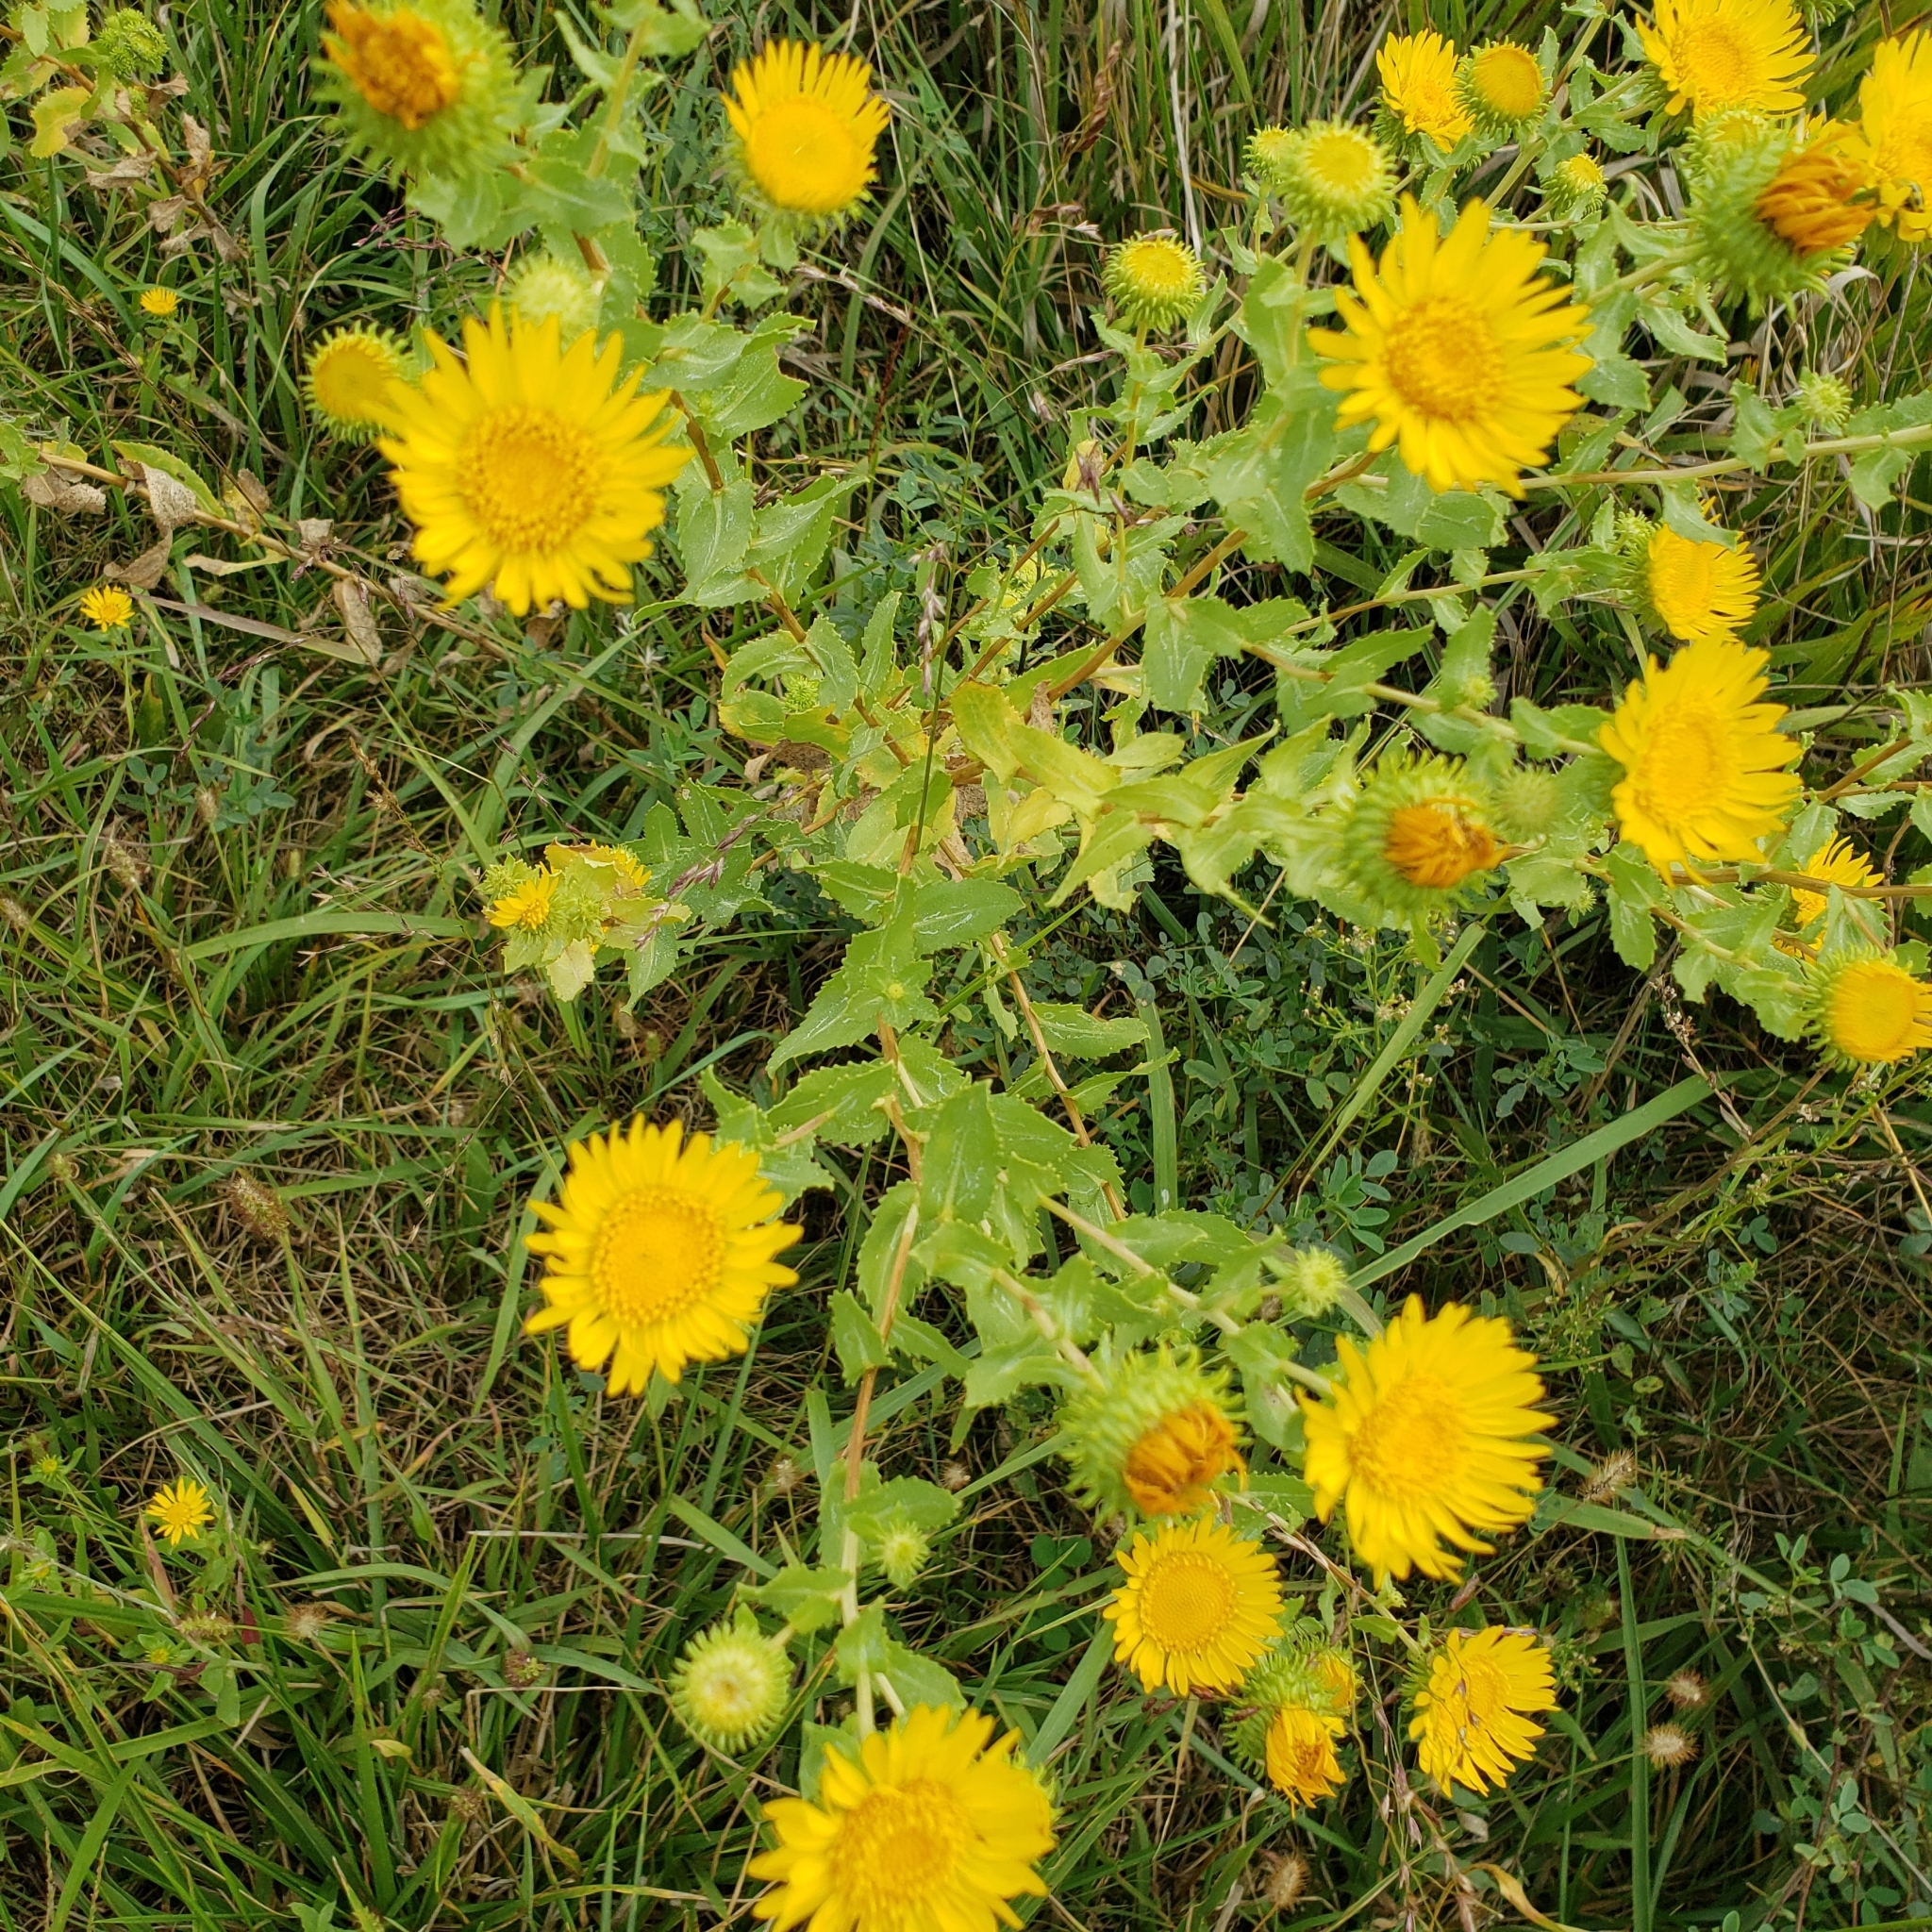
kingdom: Plantae
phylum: Tracheophyta
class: Magnoliopsida
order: Asterales
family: Asteraceae
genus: Grindelia
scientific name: Grindelia squarrosa
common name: Curly-cup gumweed
